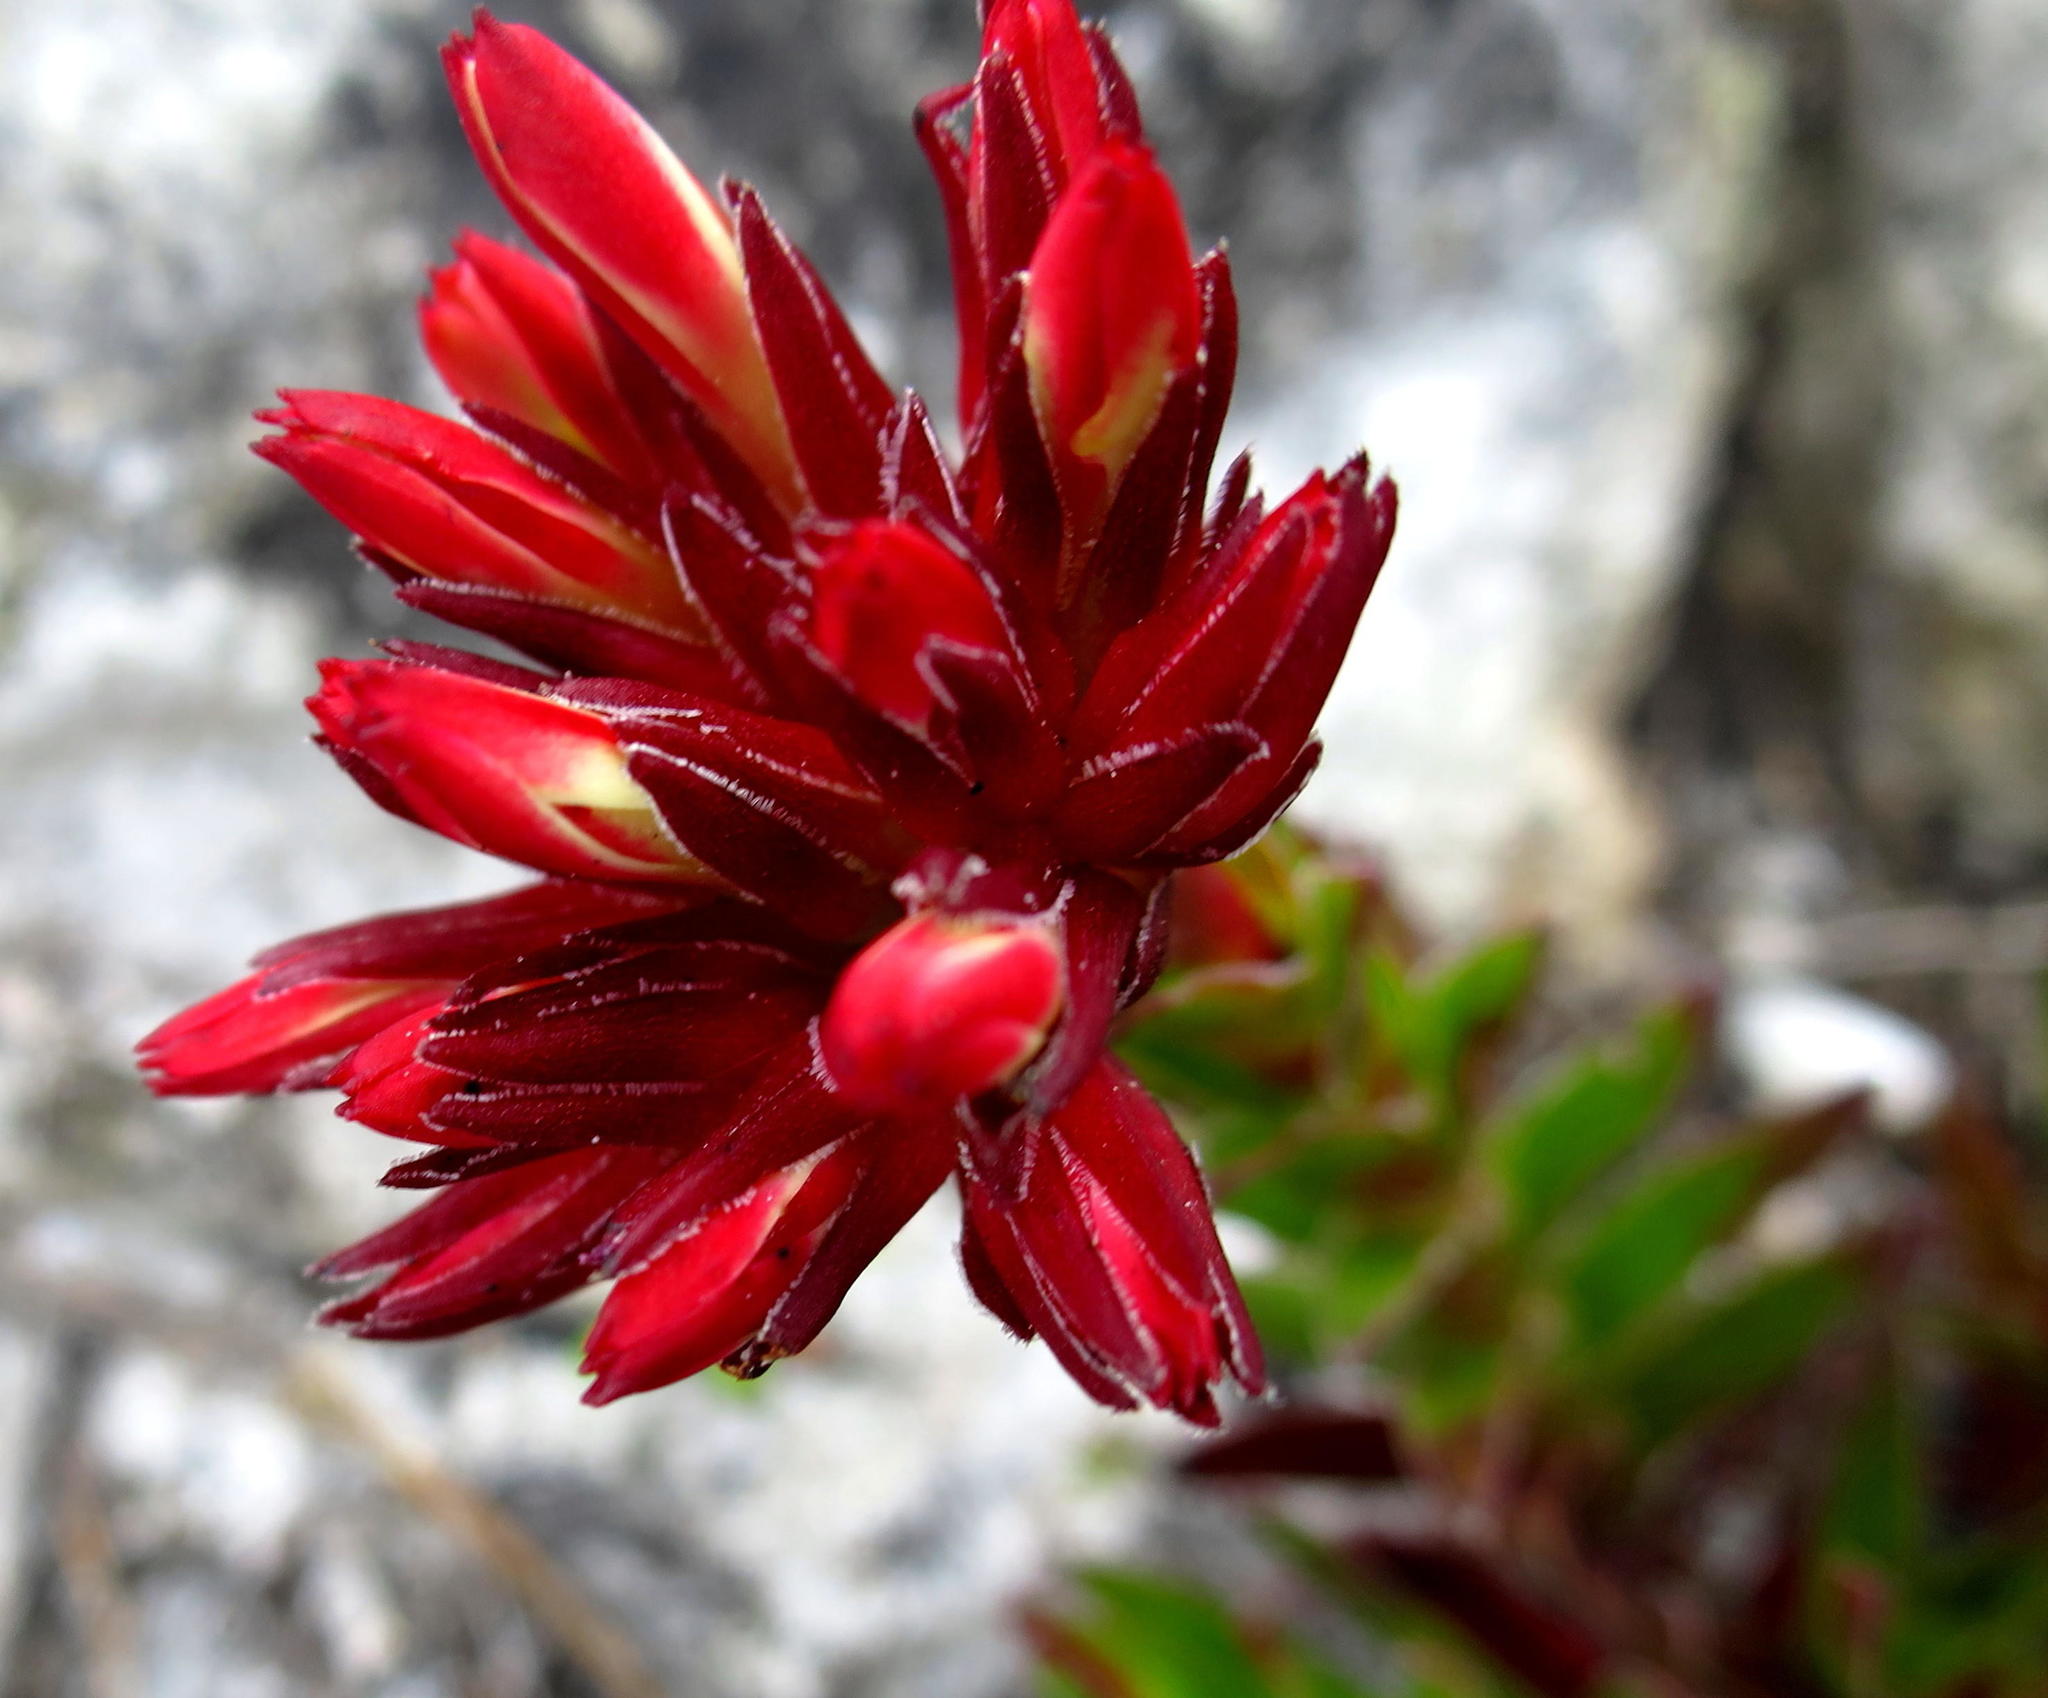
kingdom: Plantae
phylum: Tracheophyta
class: Magnoliopsida
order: Saxifragales
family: Crassulaceae
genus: Crassula
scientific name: Crassula fascicularis
